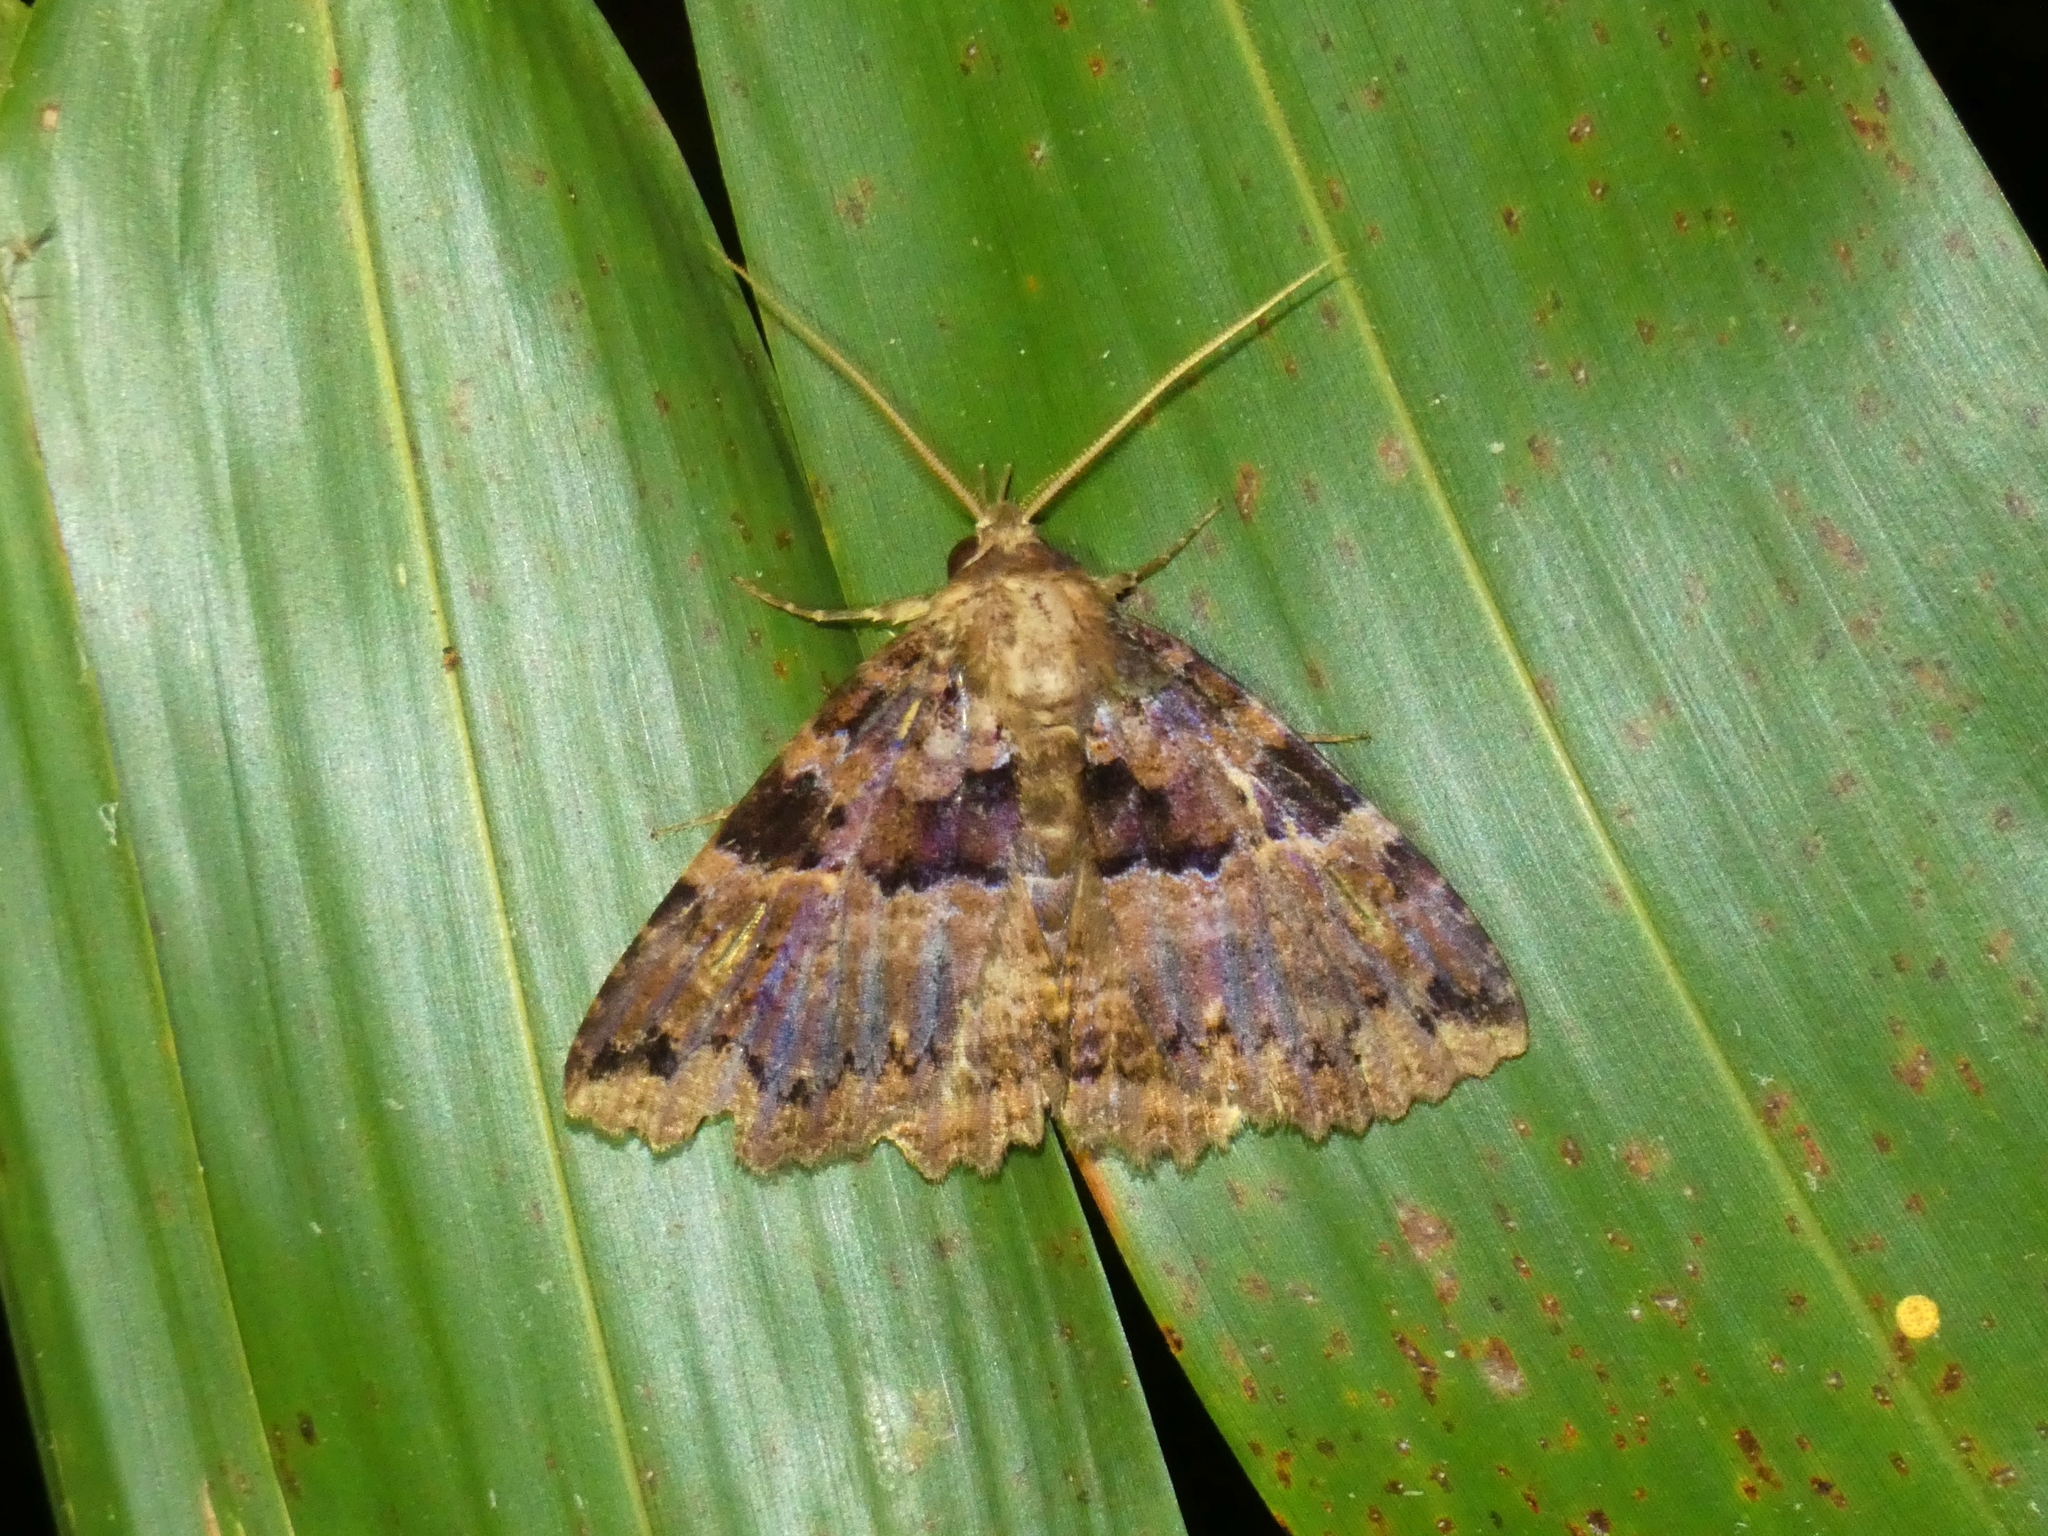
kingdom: Animalia
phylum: Arthropoda
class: Insecta
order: Lepidoptera
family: Erebidae
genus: Sypna
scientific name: Sypna buruensis
